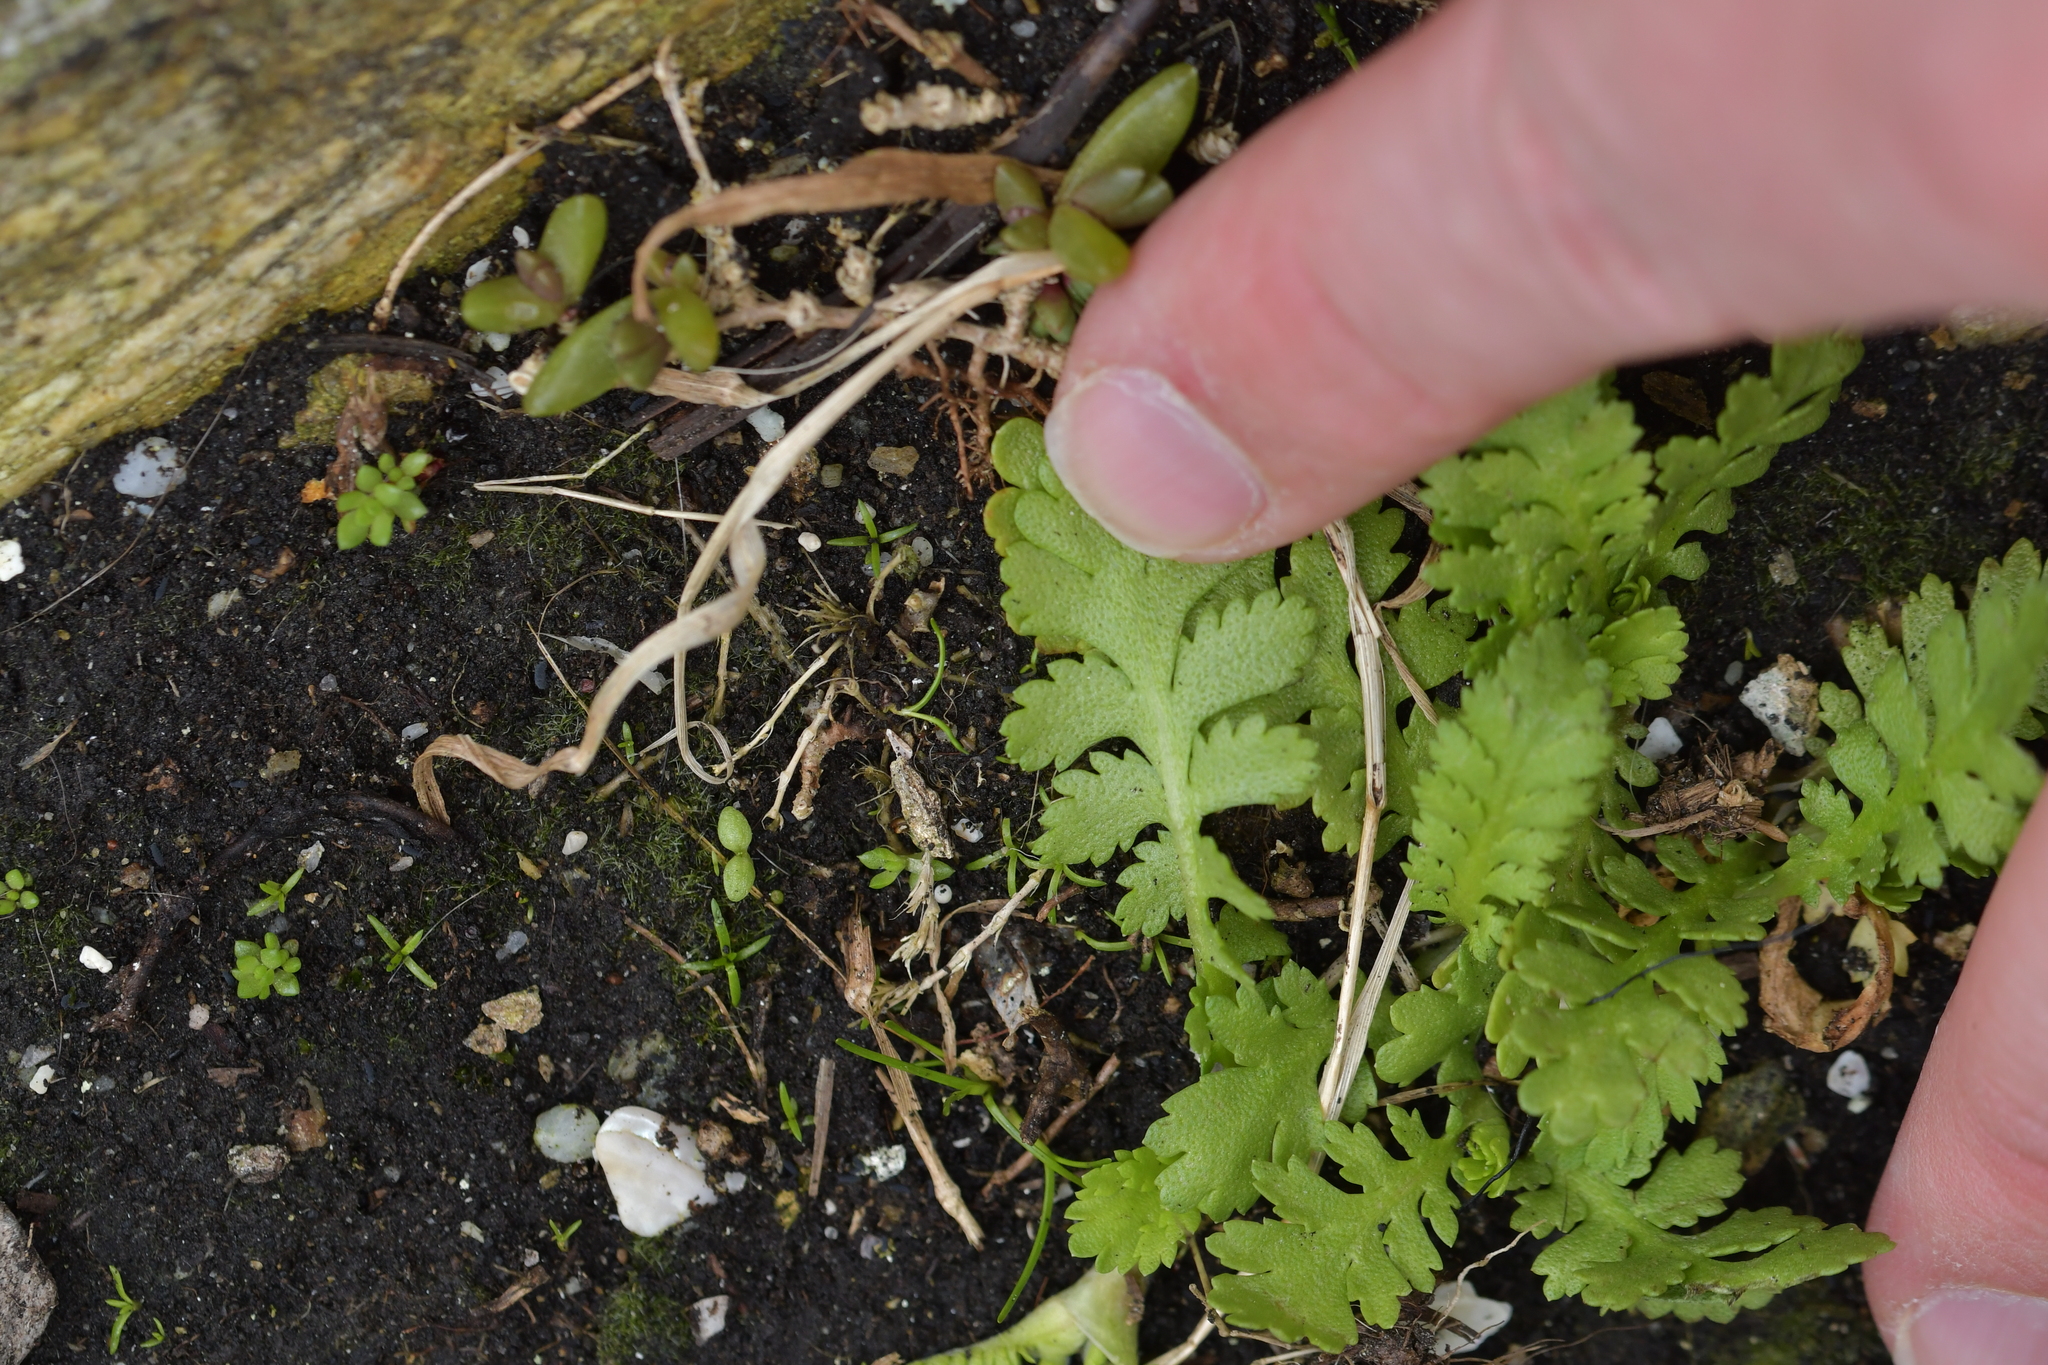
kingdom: Plantae
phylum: Tracheophyta
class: Magnoliopsida
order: Asterales
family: Asteraceae
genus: Leptinella
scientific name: Leptinella potentillina
